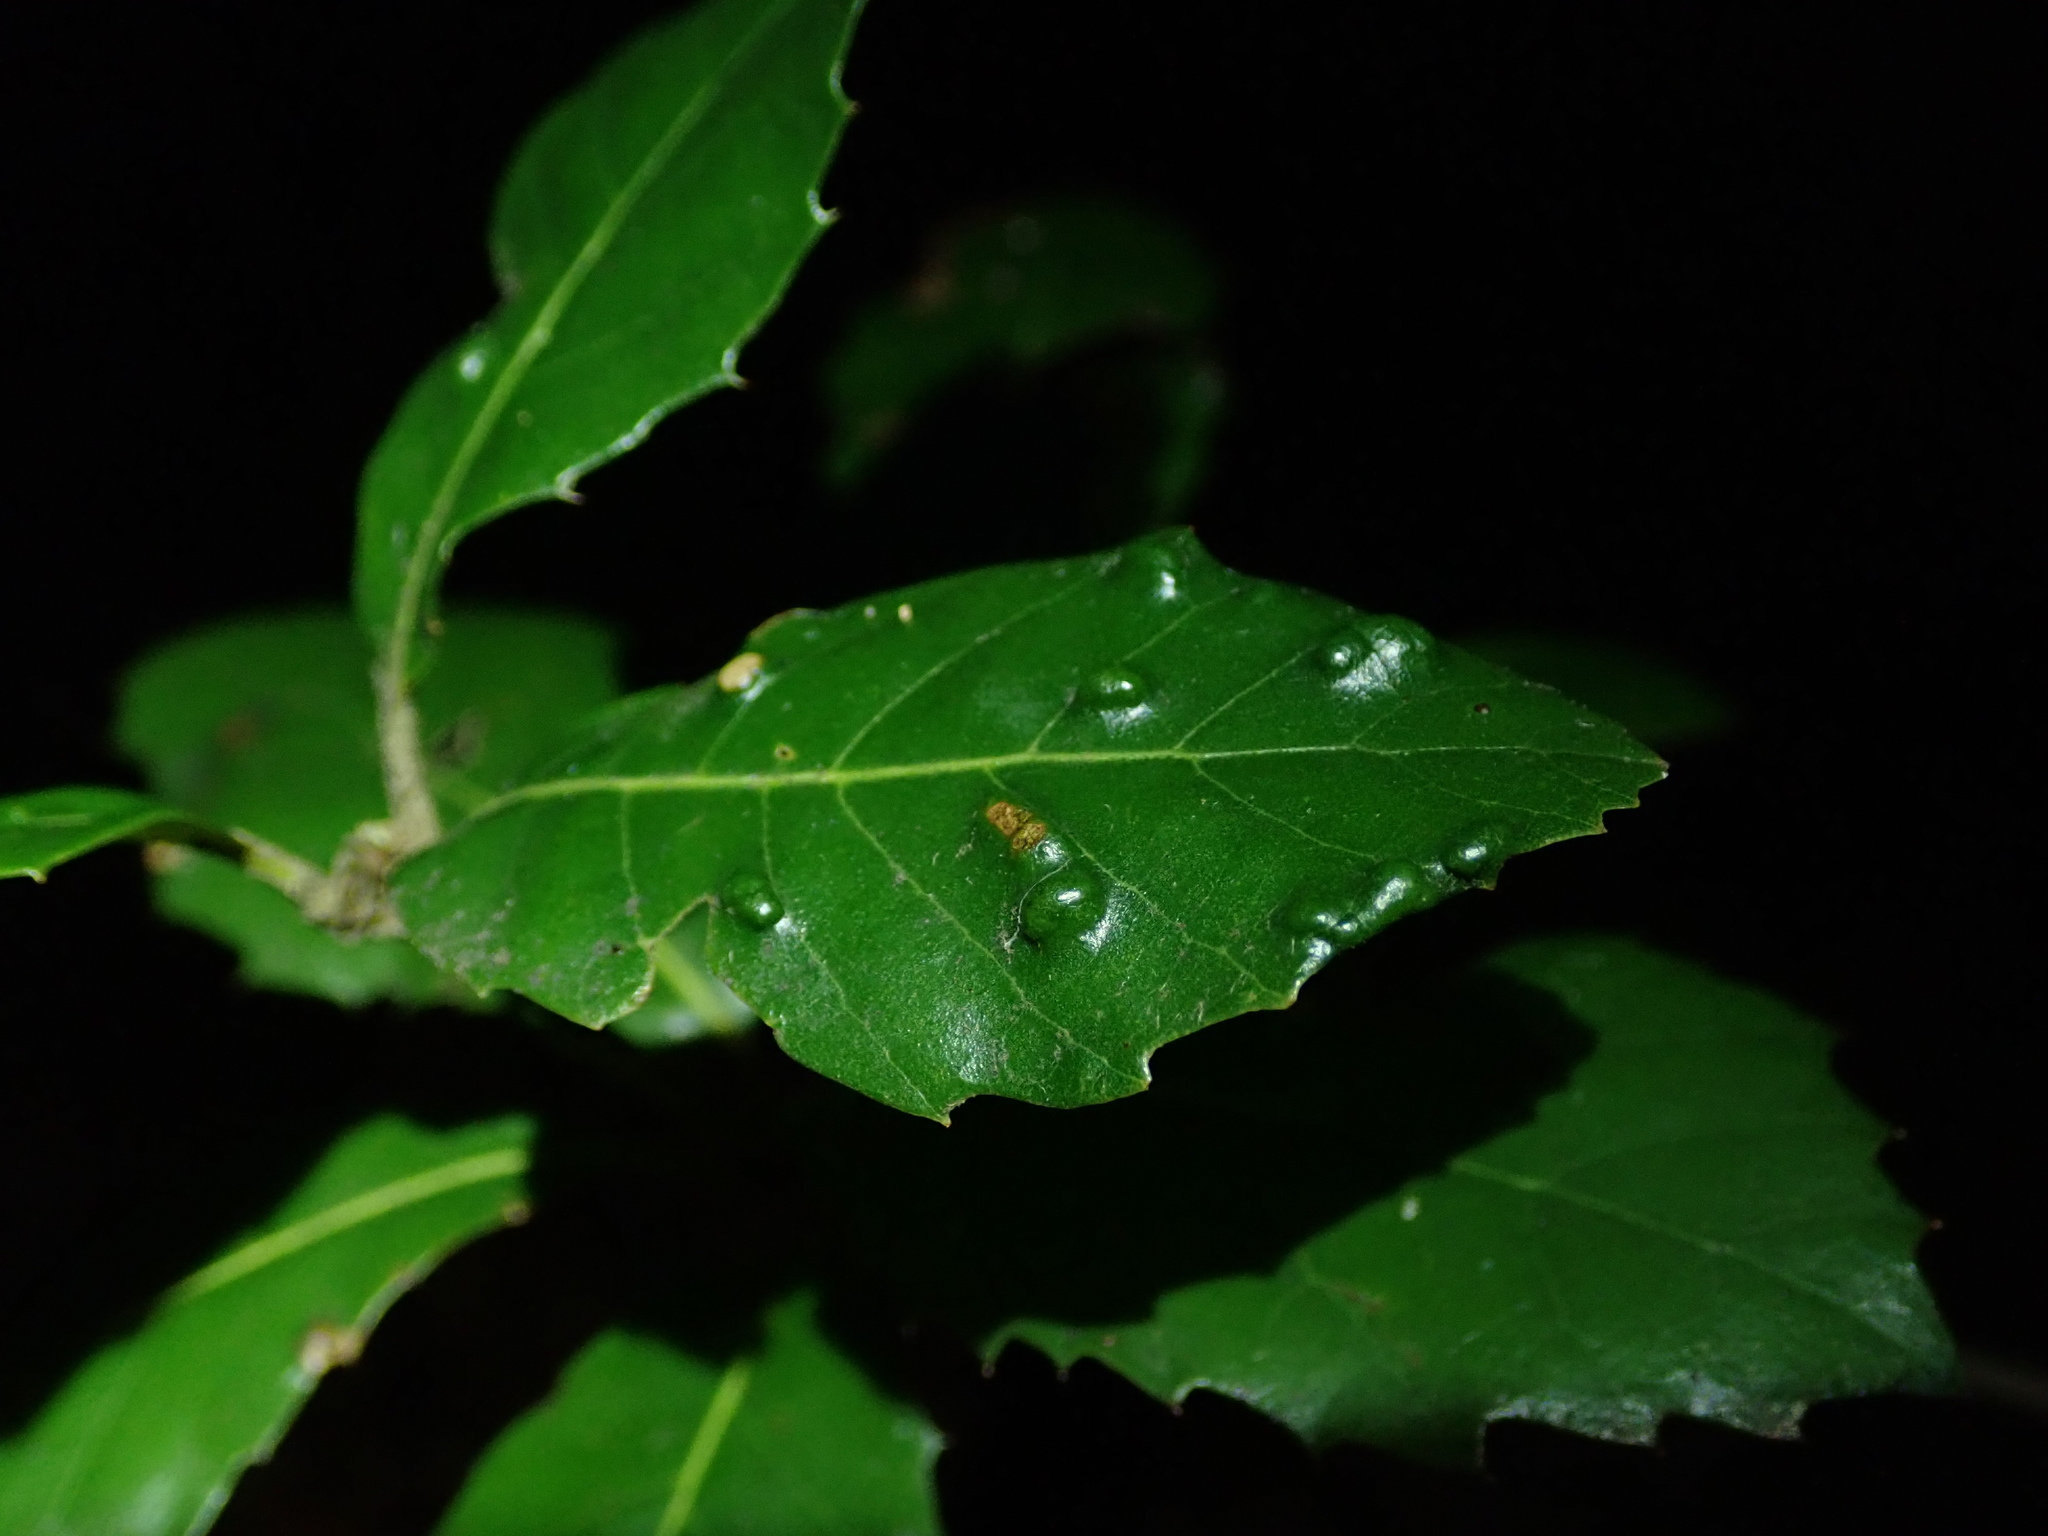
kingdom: Animalia
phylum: Arthropoda
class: Arachnida
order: Trombidiformes
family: Eriophyidae
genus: Aceria
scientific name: Aceria ilicis
